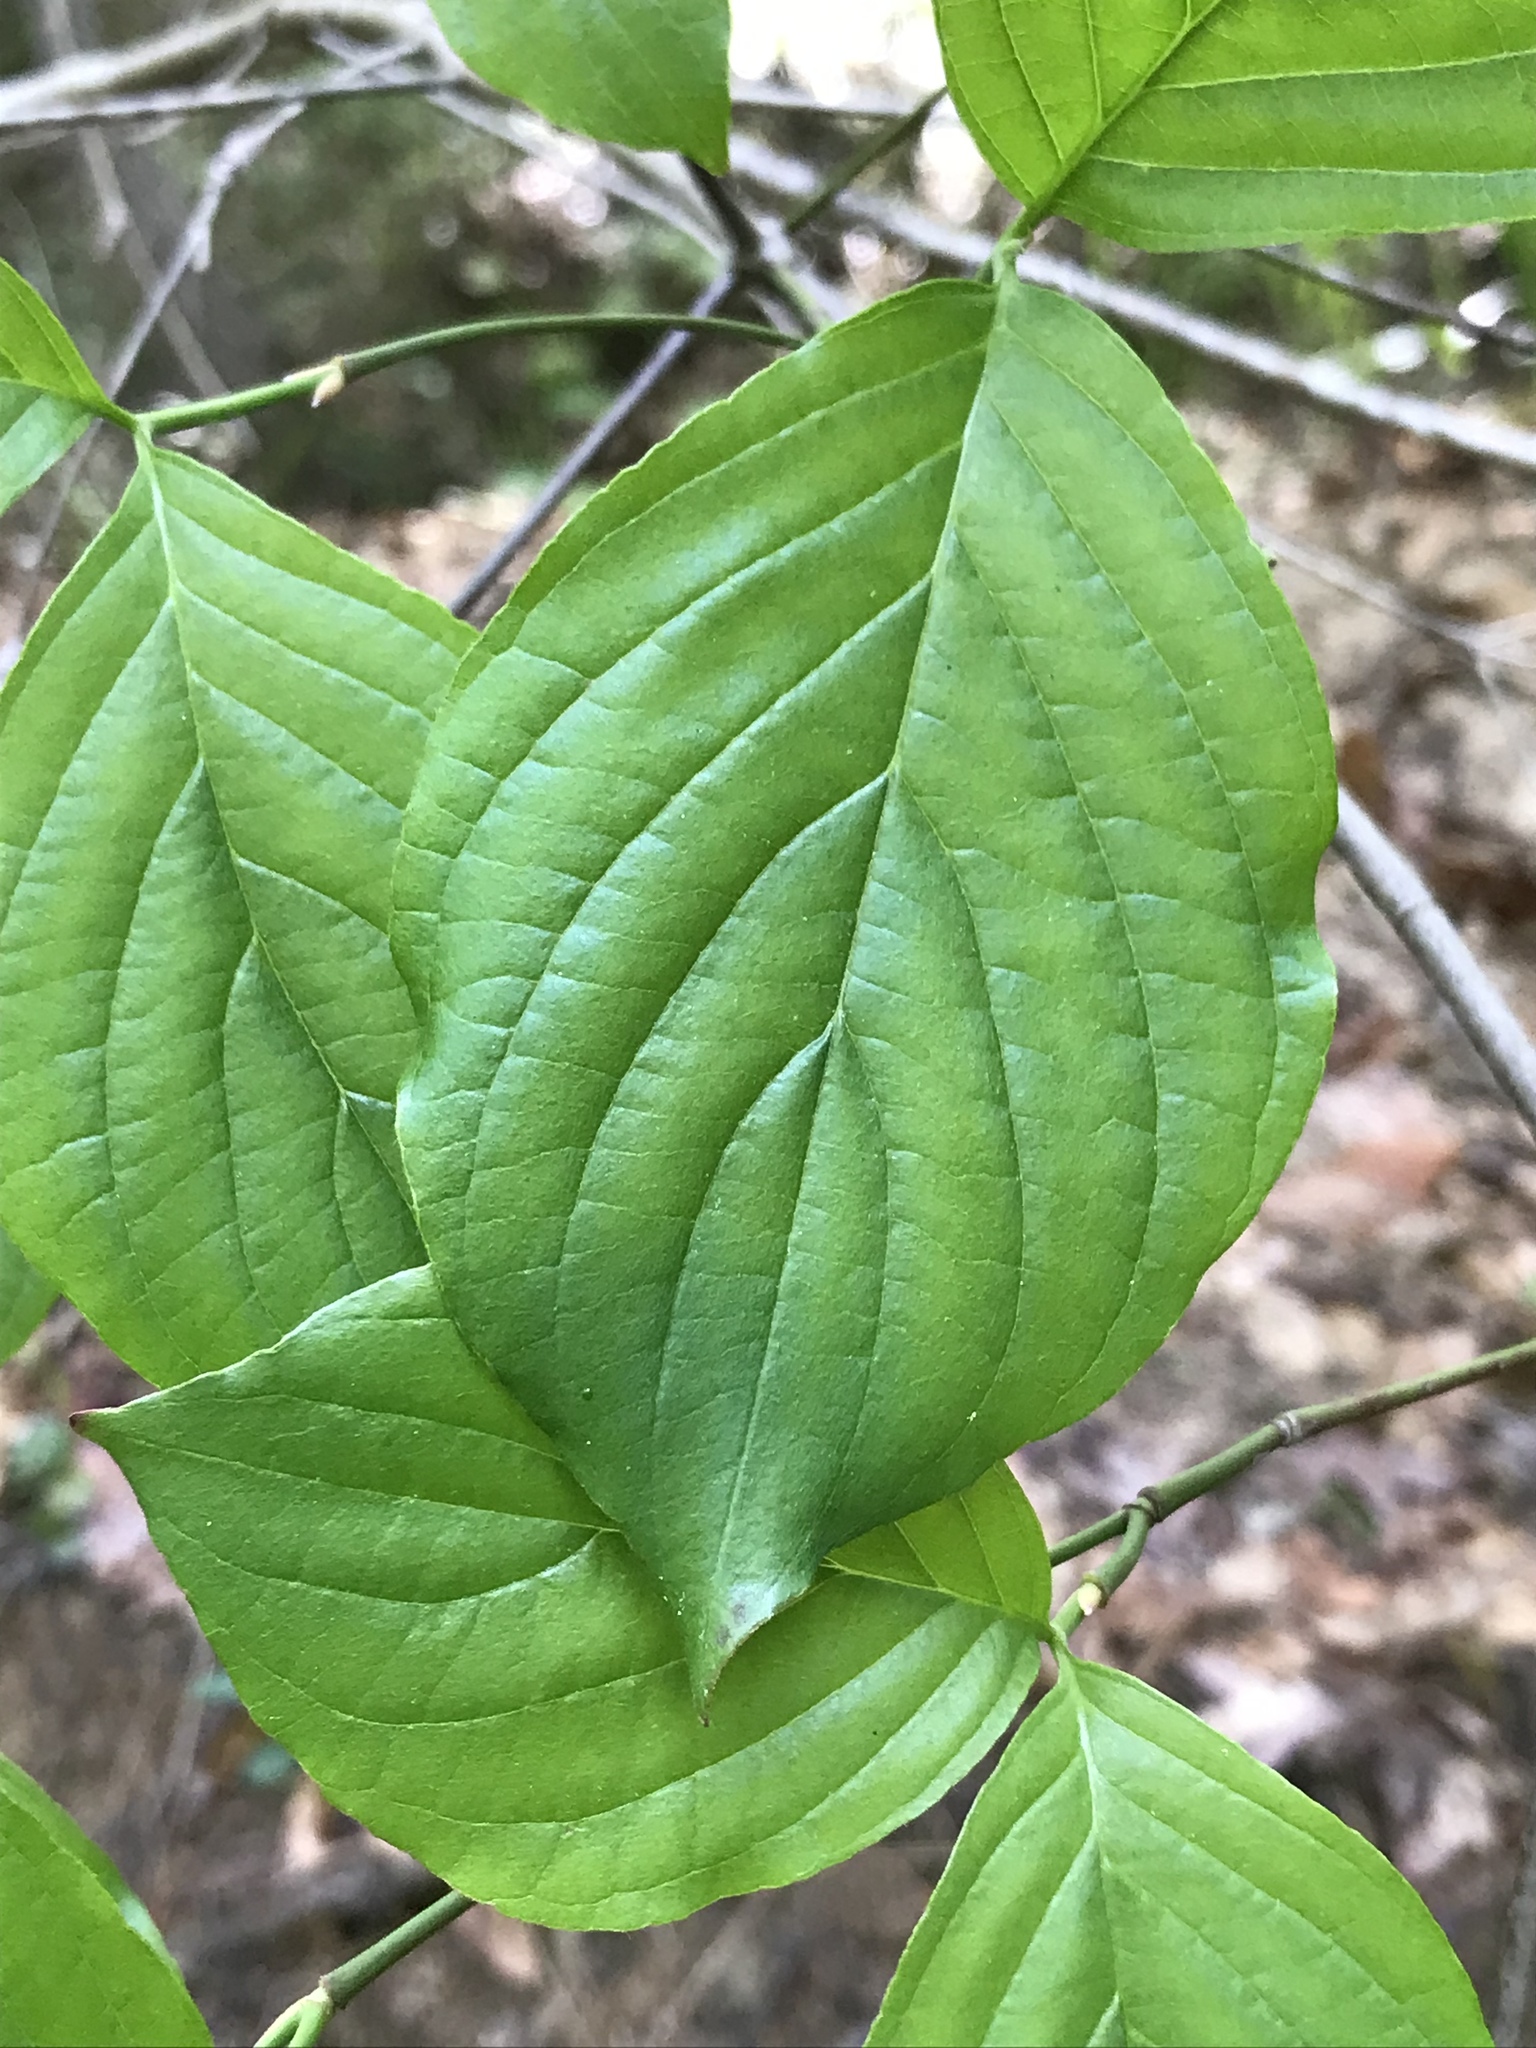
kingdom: Plantae
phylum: Tracheophyta
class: Magnoliopsida
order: Cornales
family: Cornaceae
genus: Cornus
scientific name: Cornus alternifolia
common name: Pagoda dogwood
